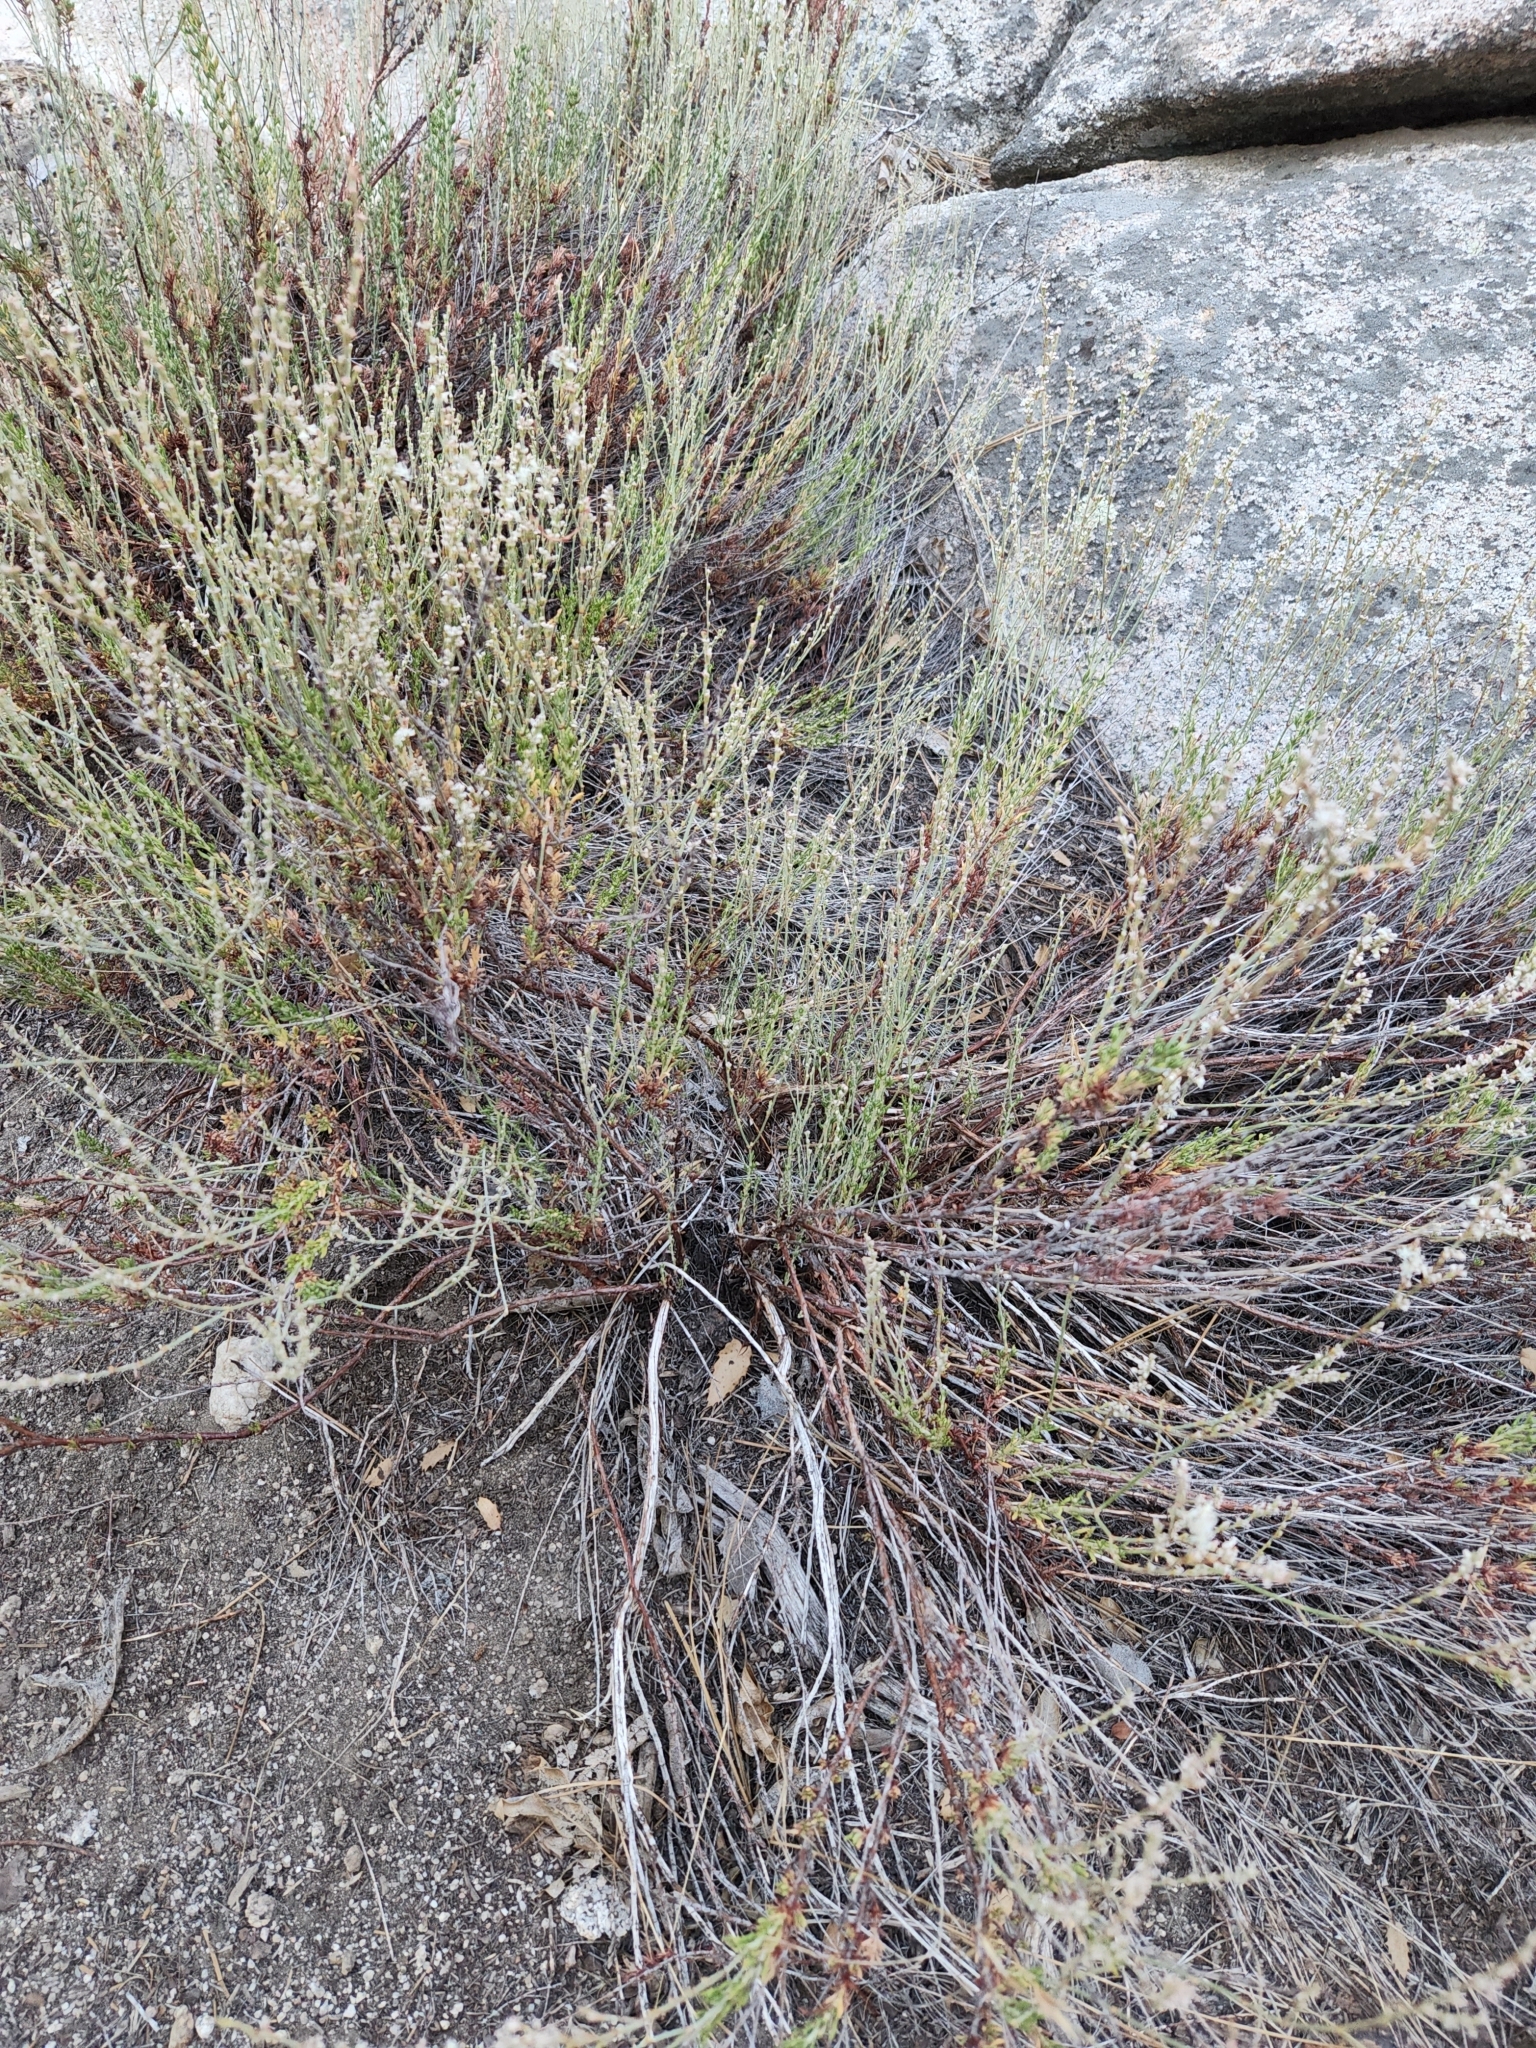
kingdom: Plantae
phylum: Tracheophyta
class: Magnoliopsida
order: Caryophyllales
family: Polygonaceae
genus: Eriogonum
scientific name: Eriogonum wrightii
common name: Bastard-sage
